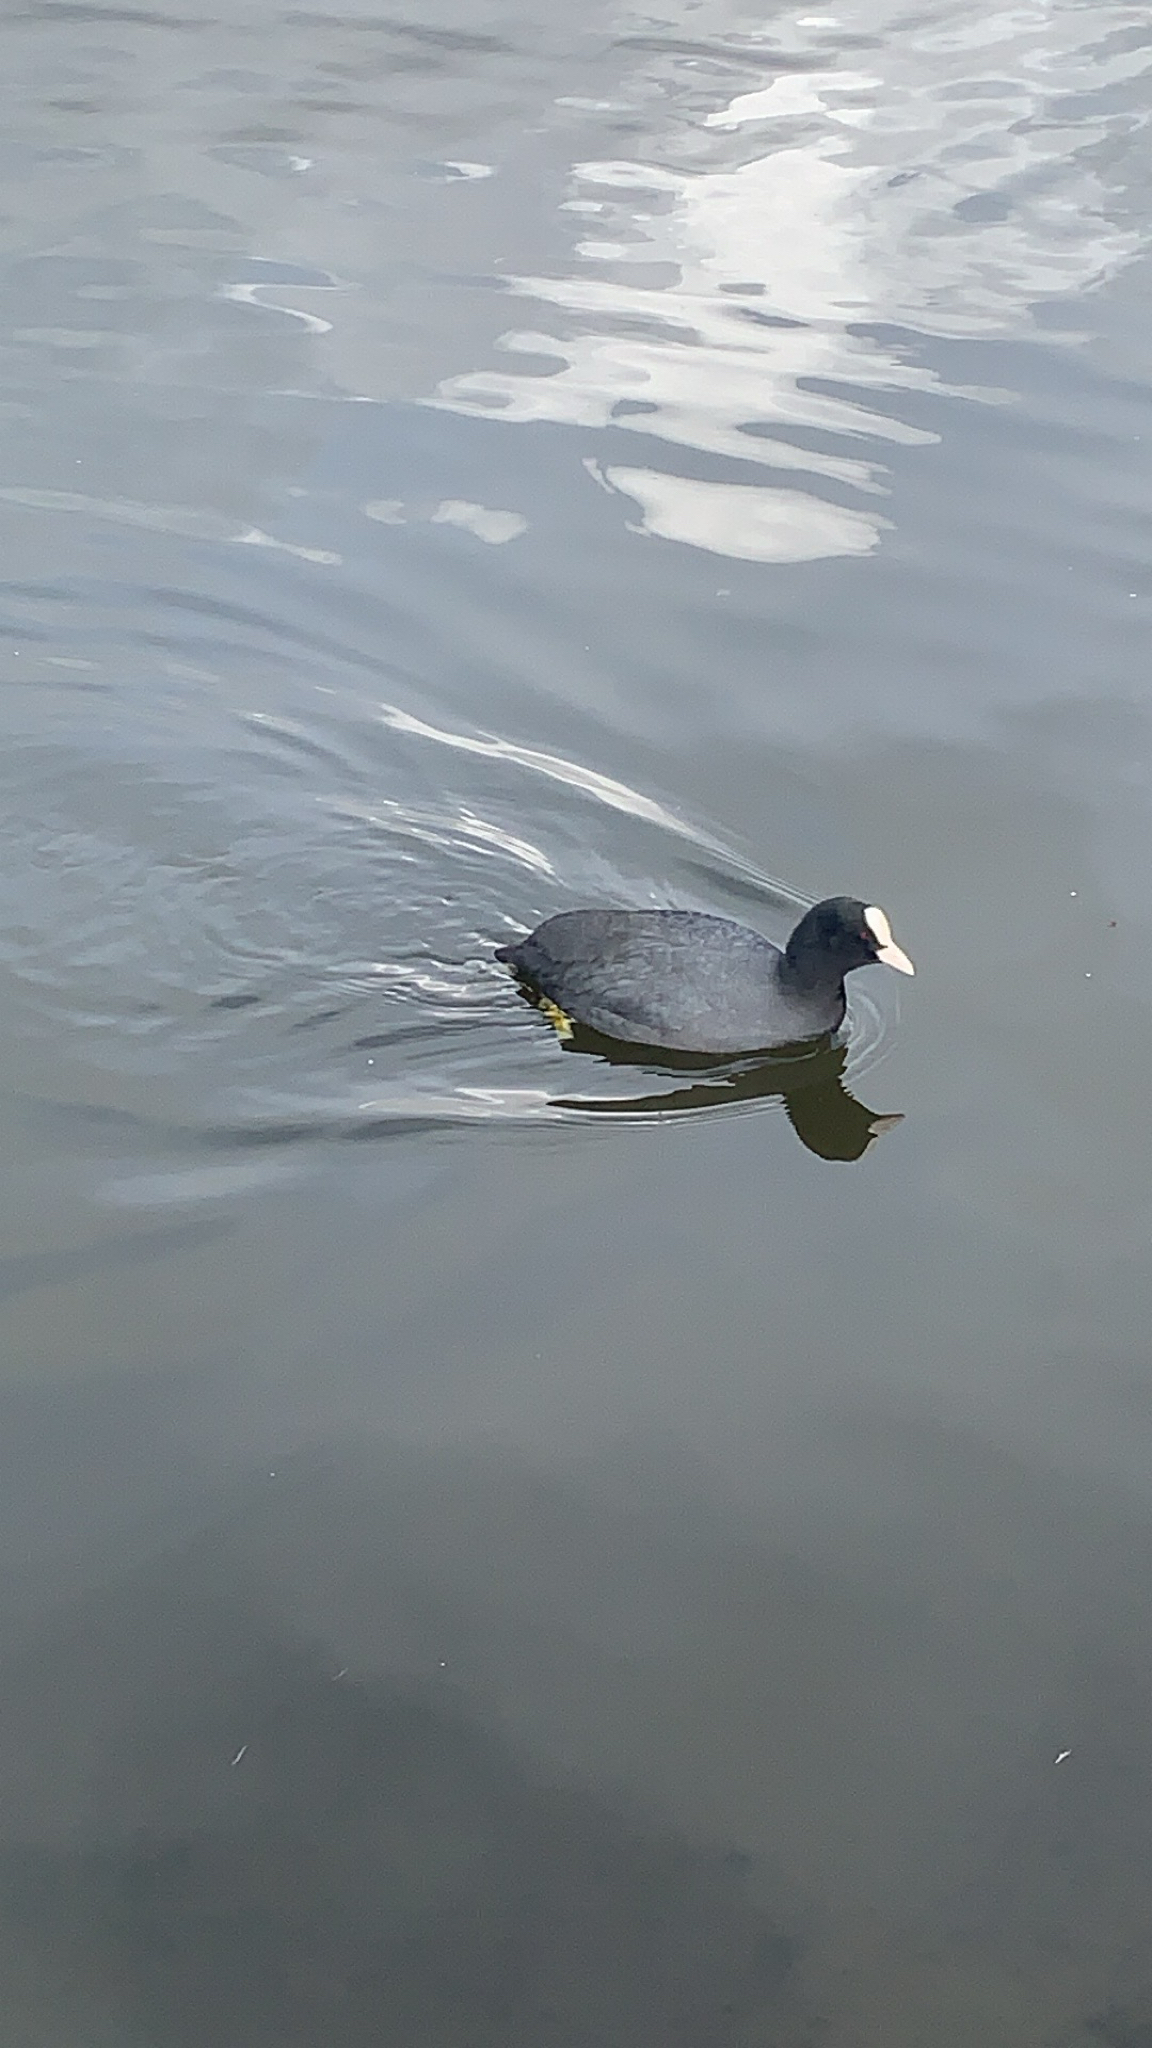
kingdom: Animalia
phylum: Chordata
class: Aves
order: Gruiformes
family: Rallidae
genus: Fulica
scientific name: Fulica atra
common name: Eurasian coot
